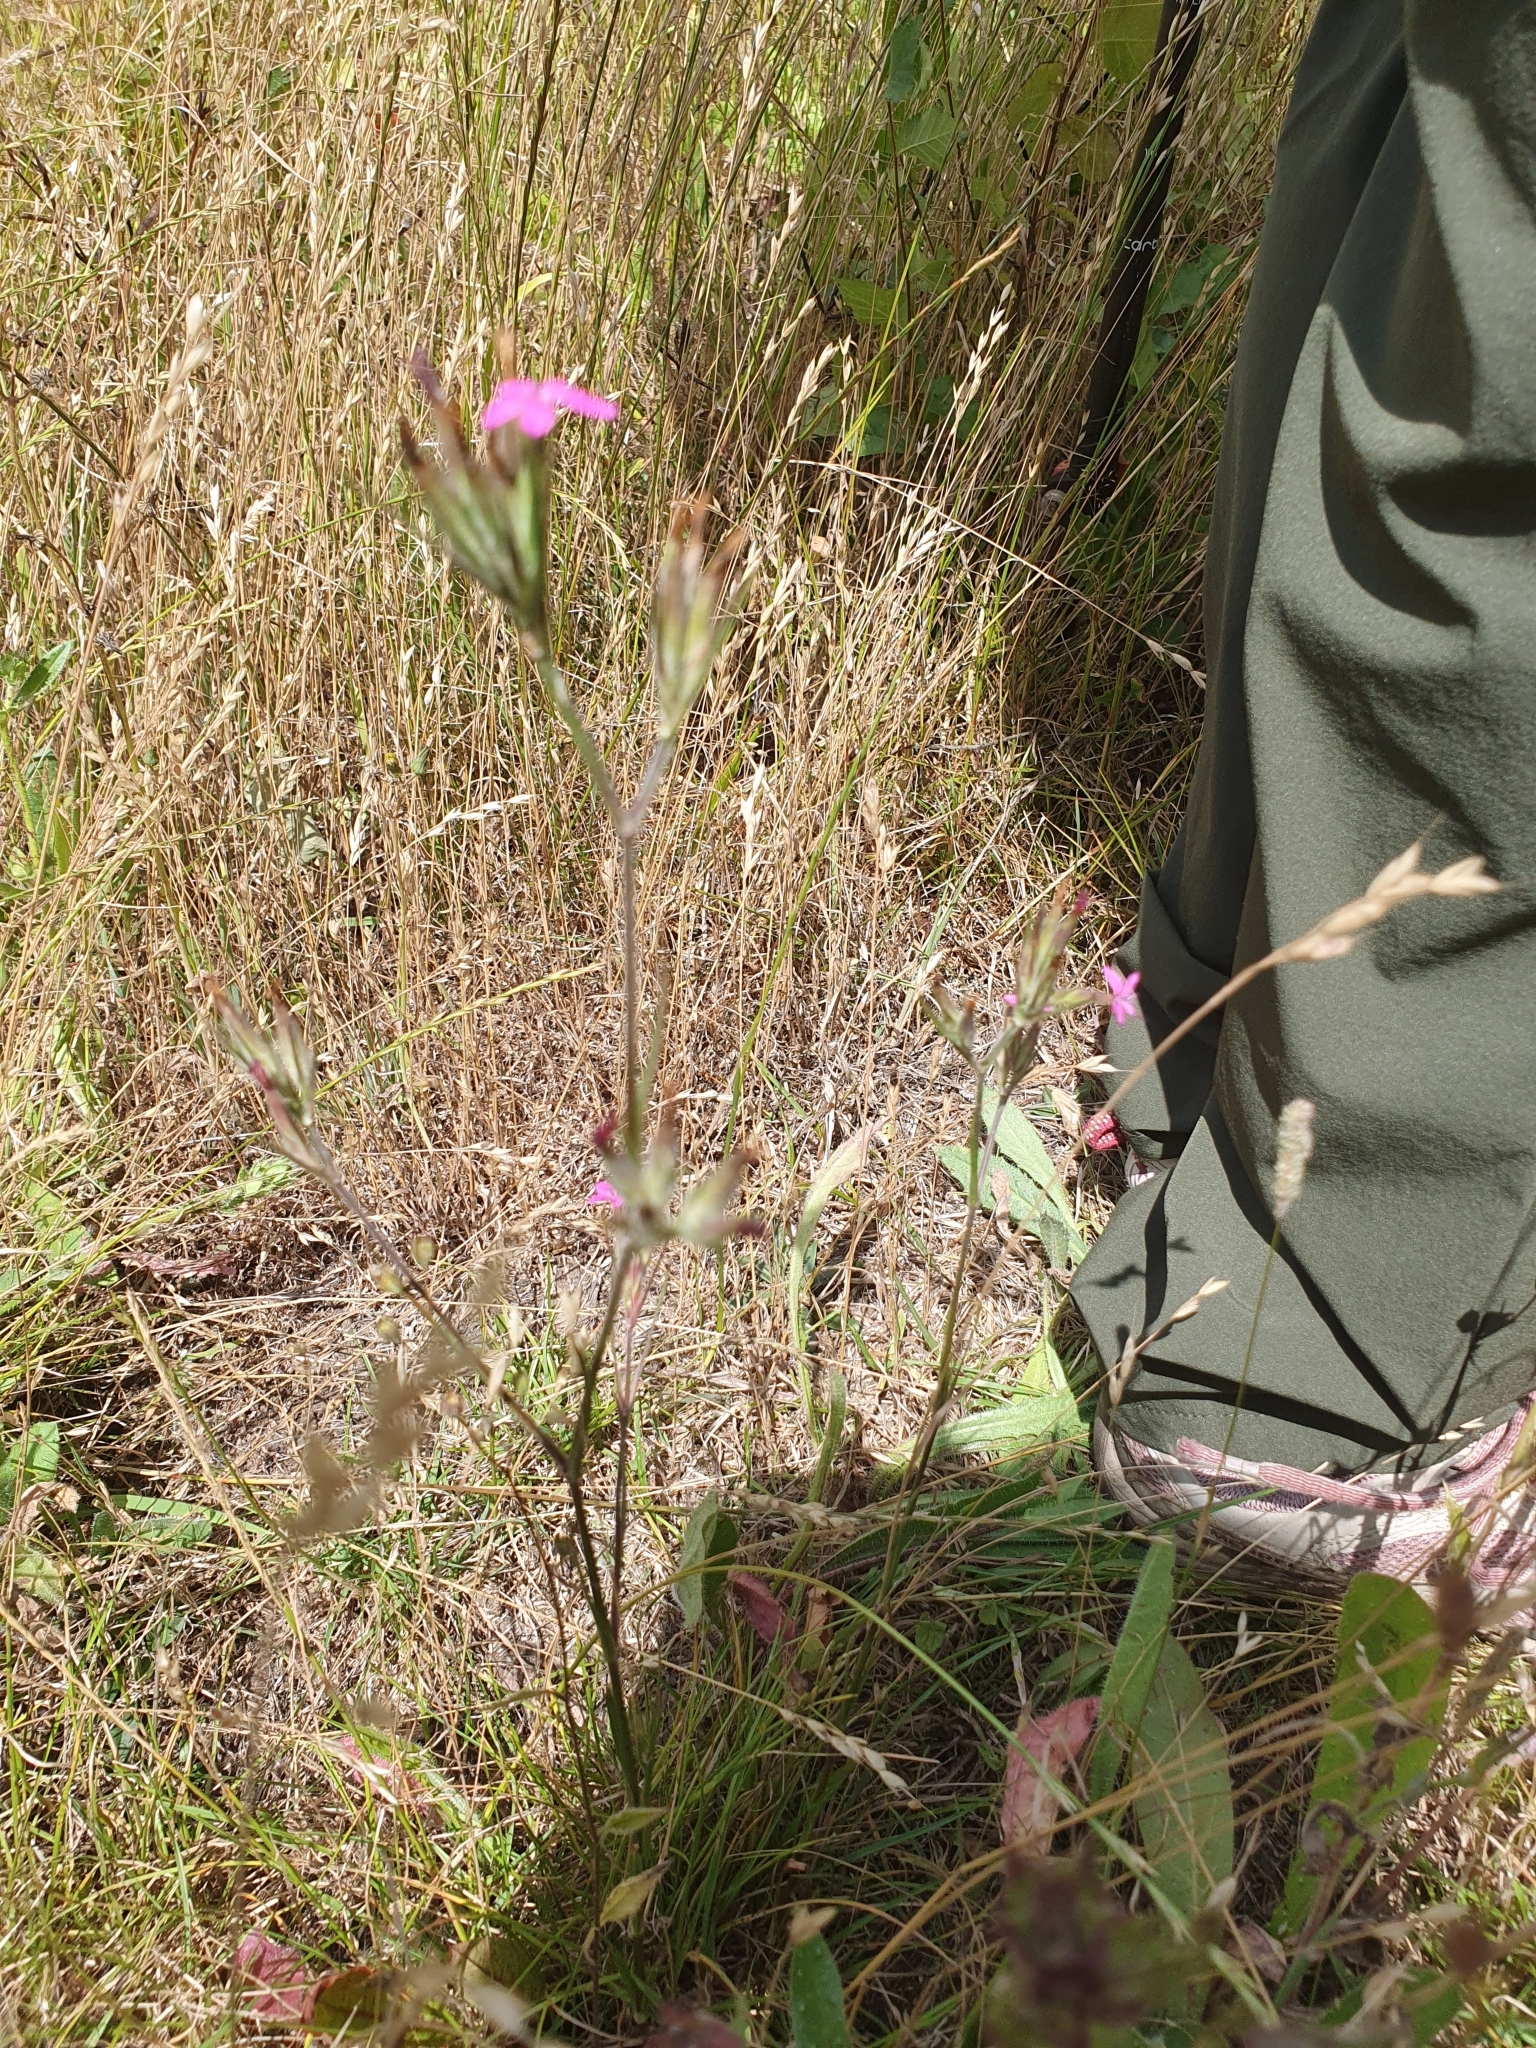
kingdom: Plantae
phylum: Tracheophyta
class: Magnoliopsida
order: Caryophyllales
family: Caryophyllaceae
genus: Dianthus
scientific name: Dianthus armeria
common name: Deptford pink
